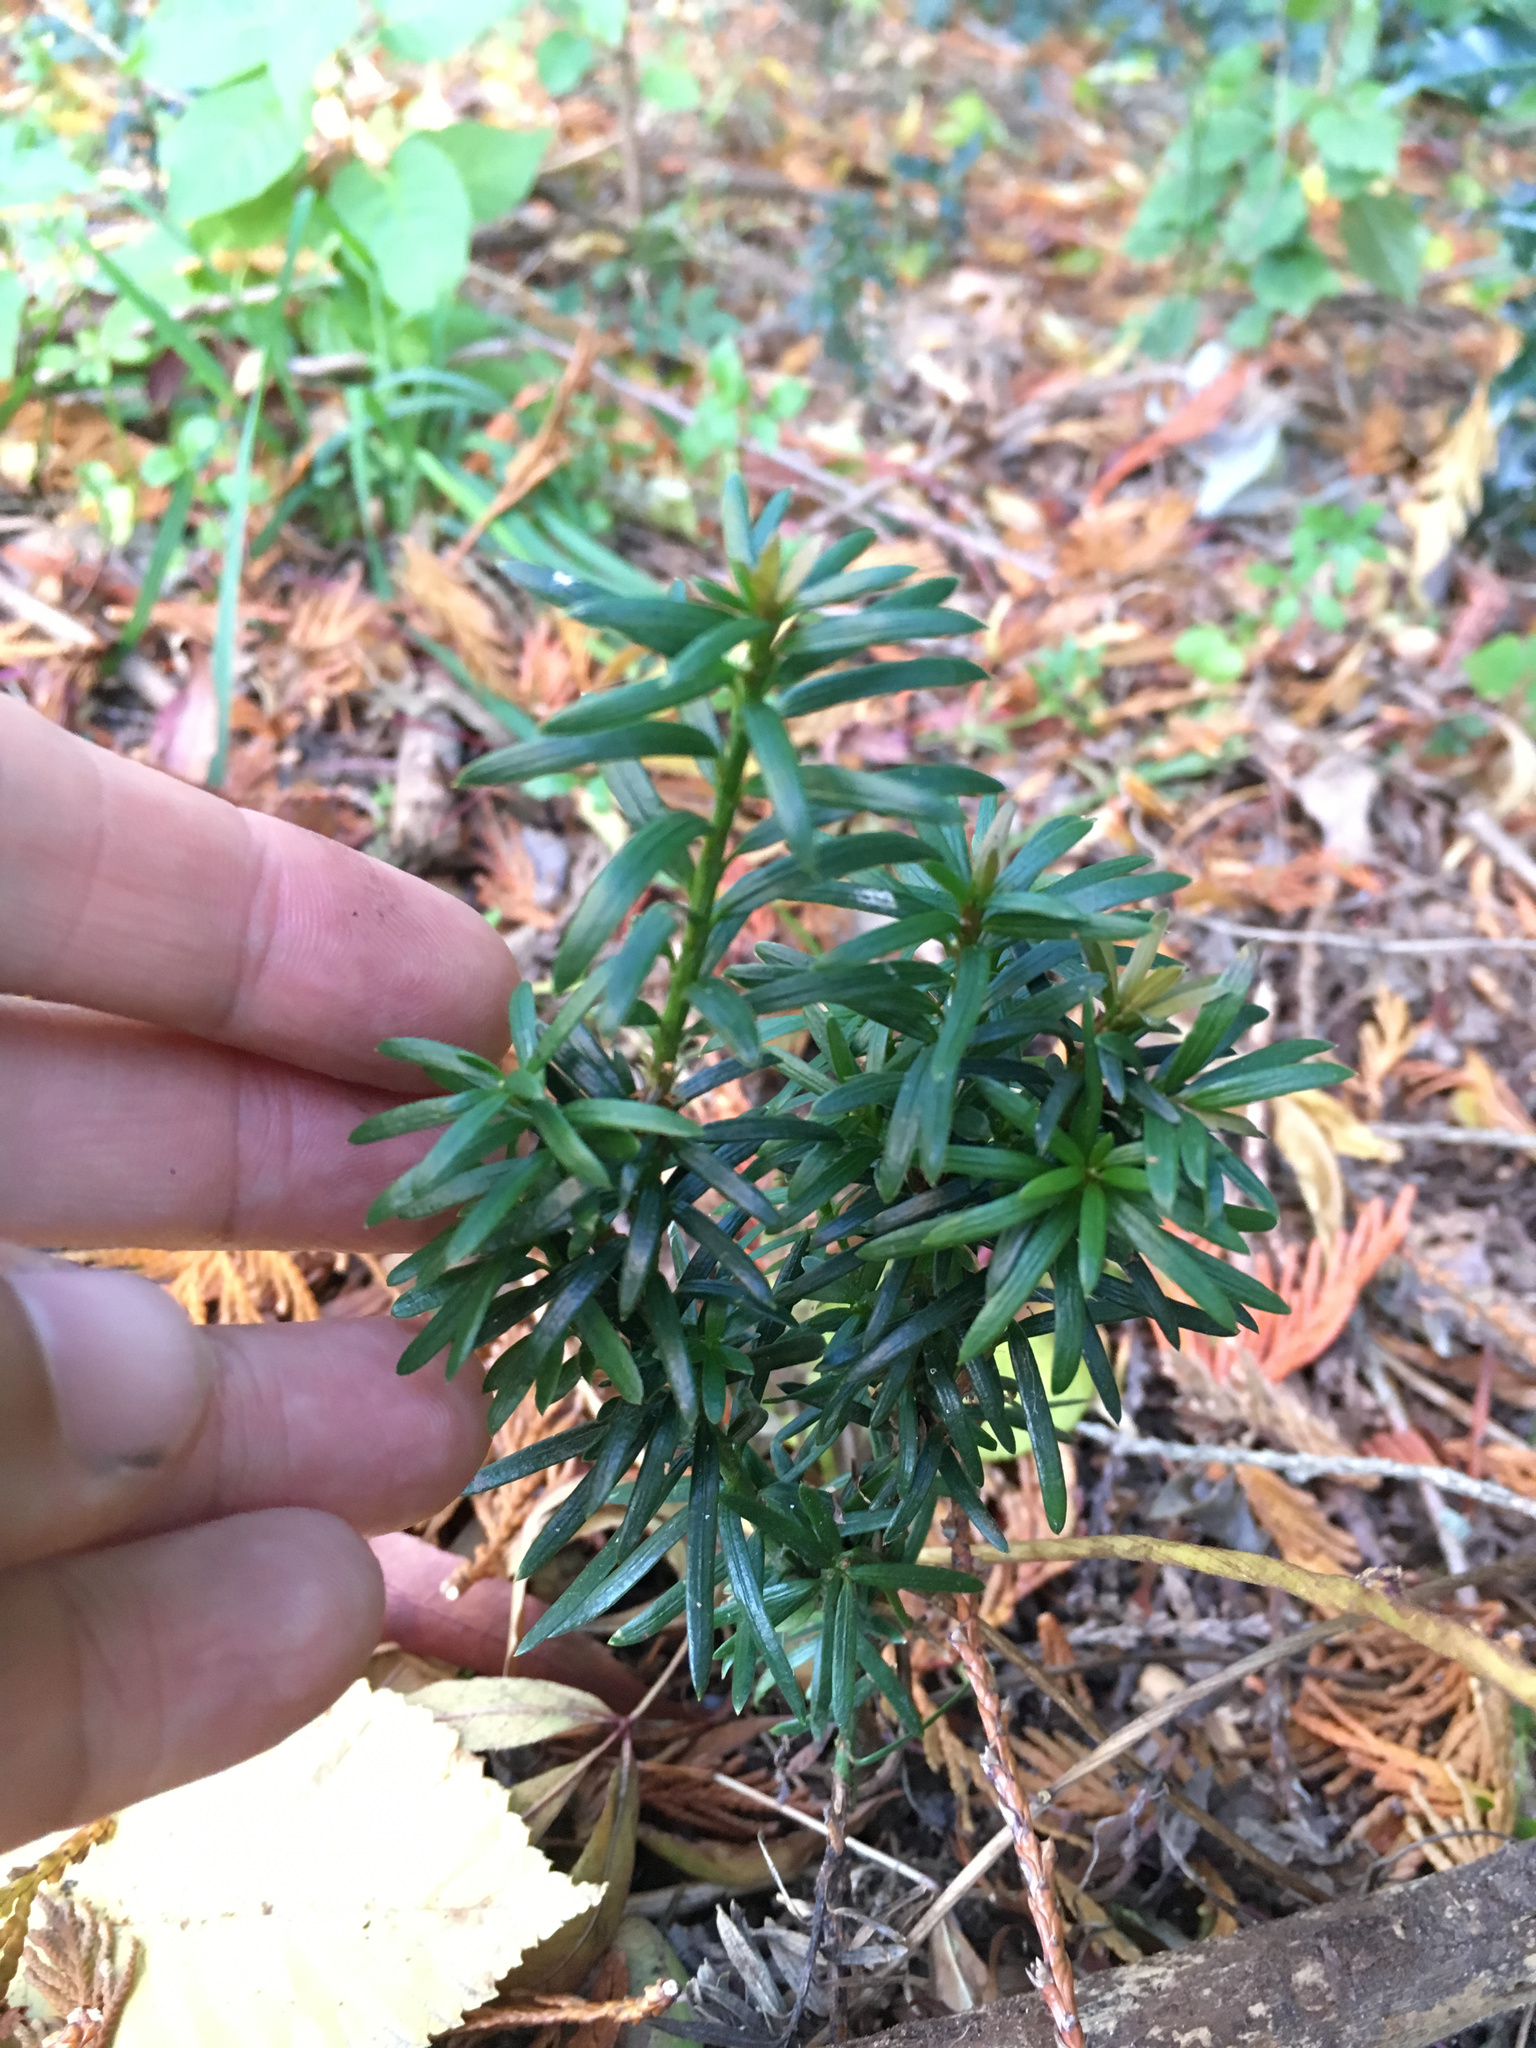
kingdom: Plantae
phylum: Tracheophyta
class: Pinopsida
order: Pinales
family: Taxaceae
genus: Taxus
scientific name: Taxus baccata
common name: Yew
